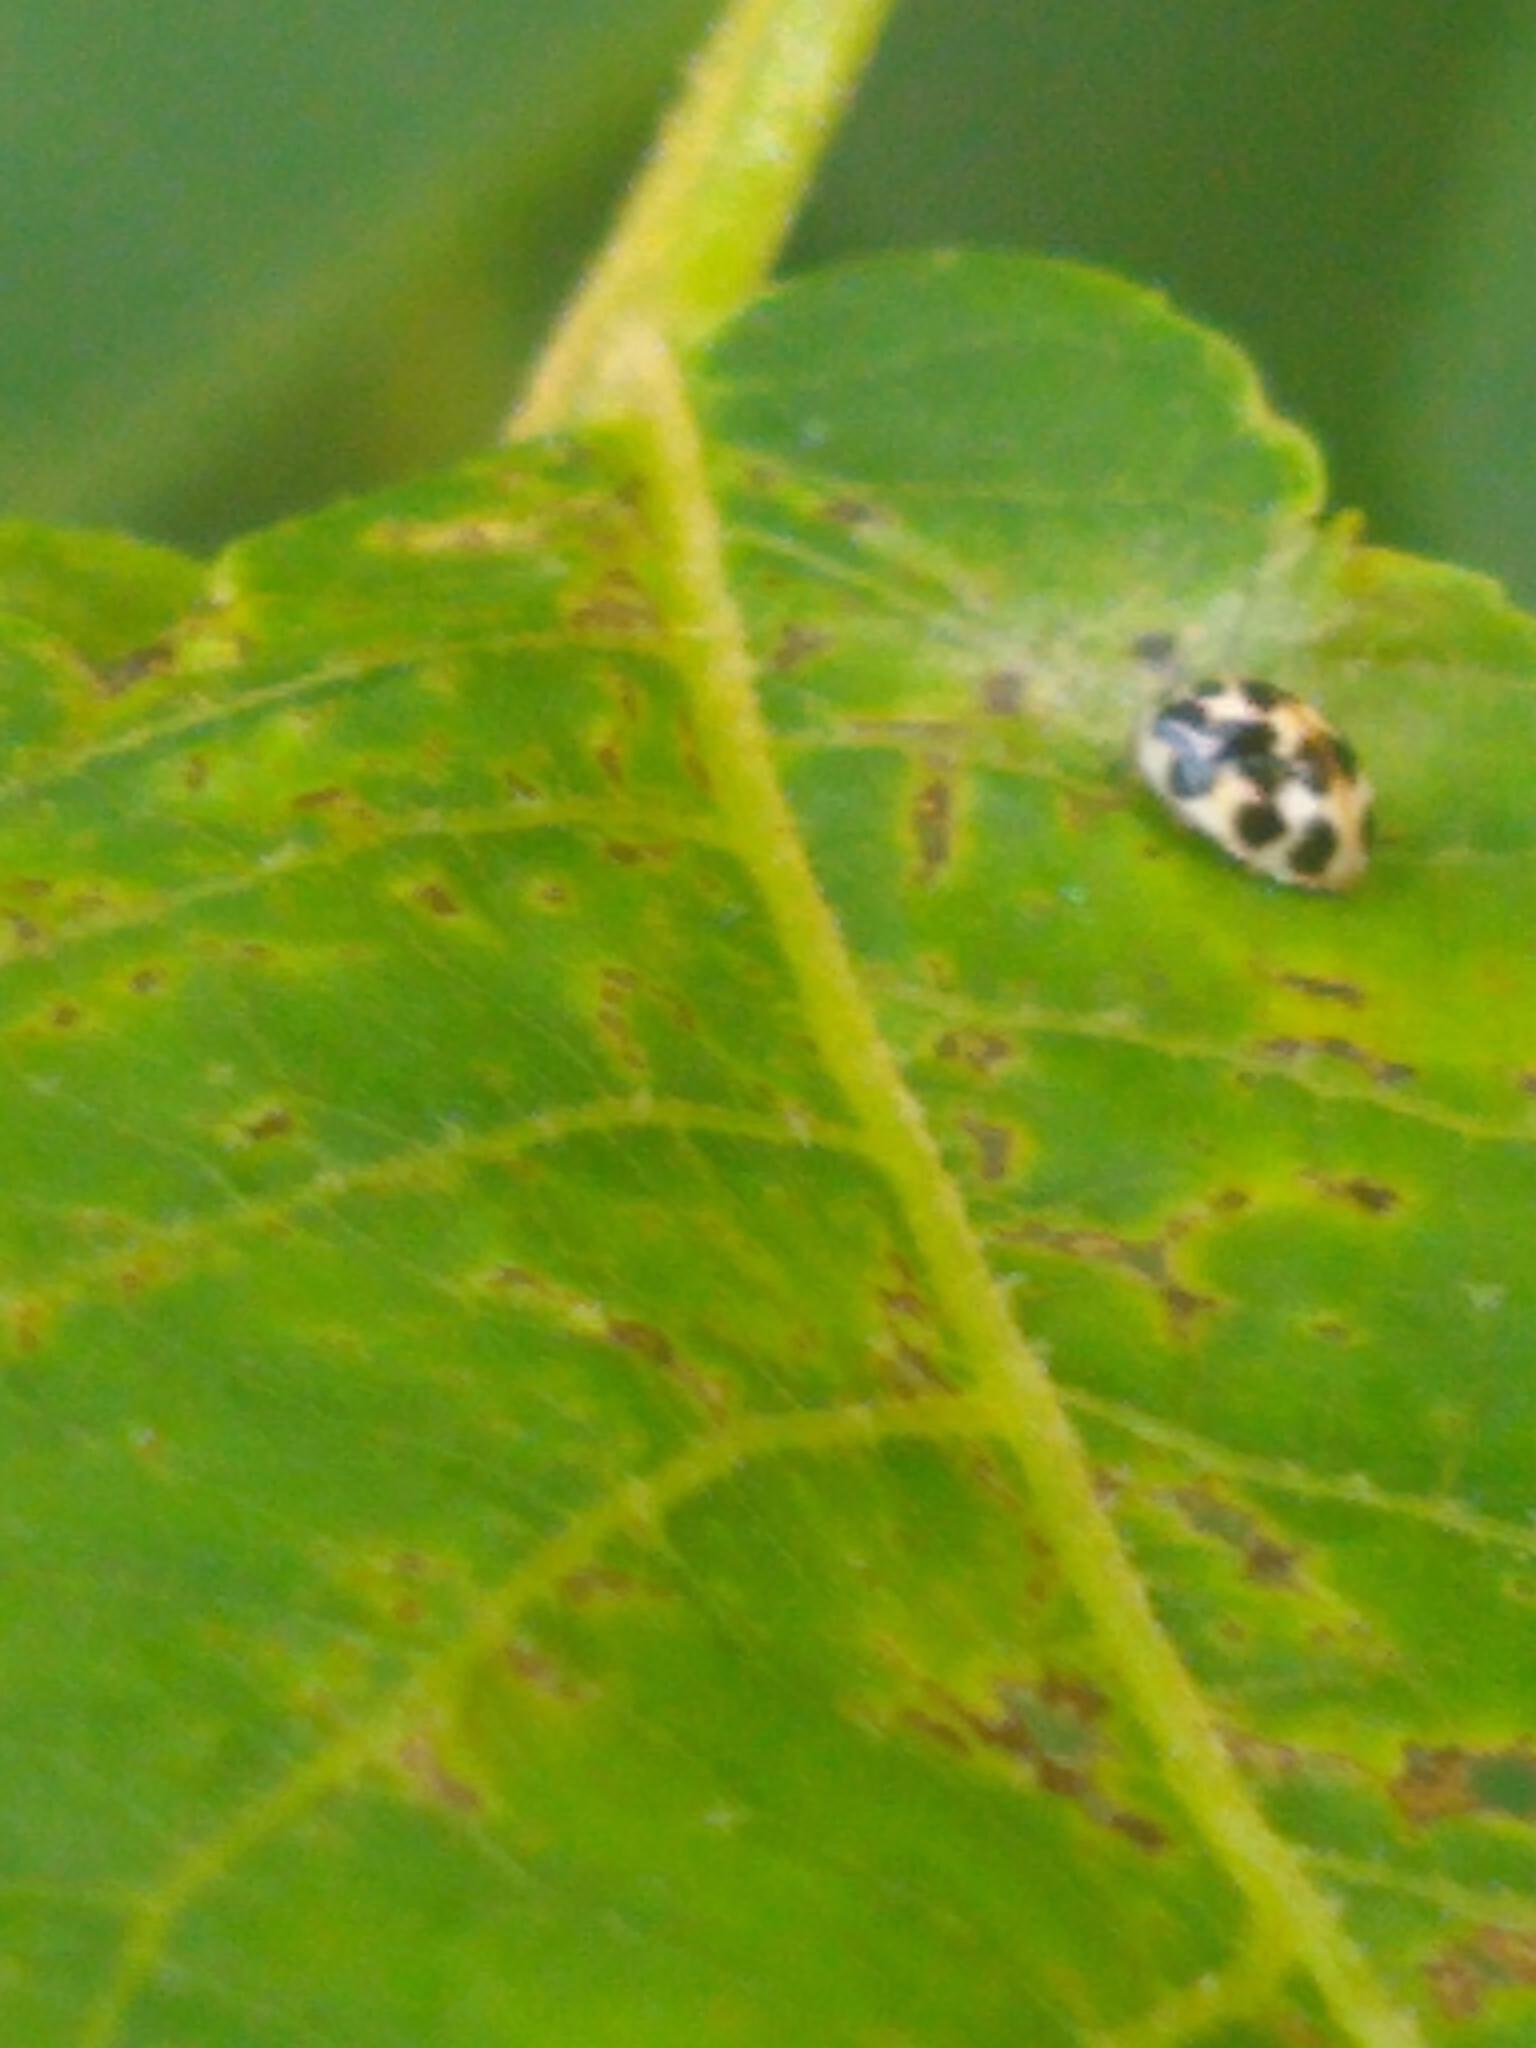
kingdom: Animalia
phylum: Arthropoda
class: Insecta
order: Coleoptera
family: Coccinellidae
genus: Psyllobora
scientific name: Psyllobora vigintimaculata
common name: Ladybird beetle
